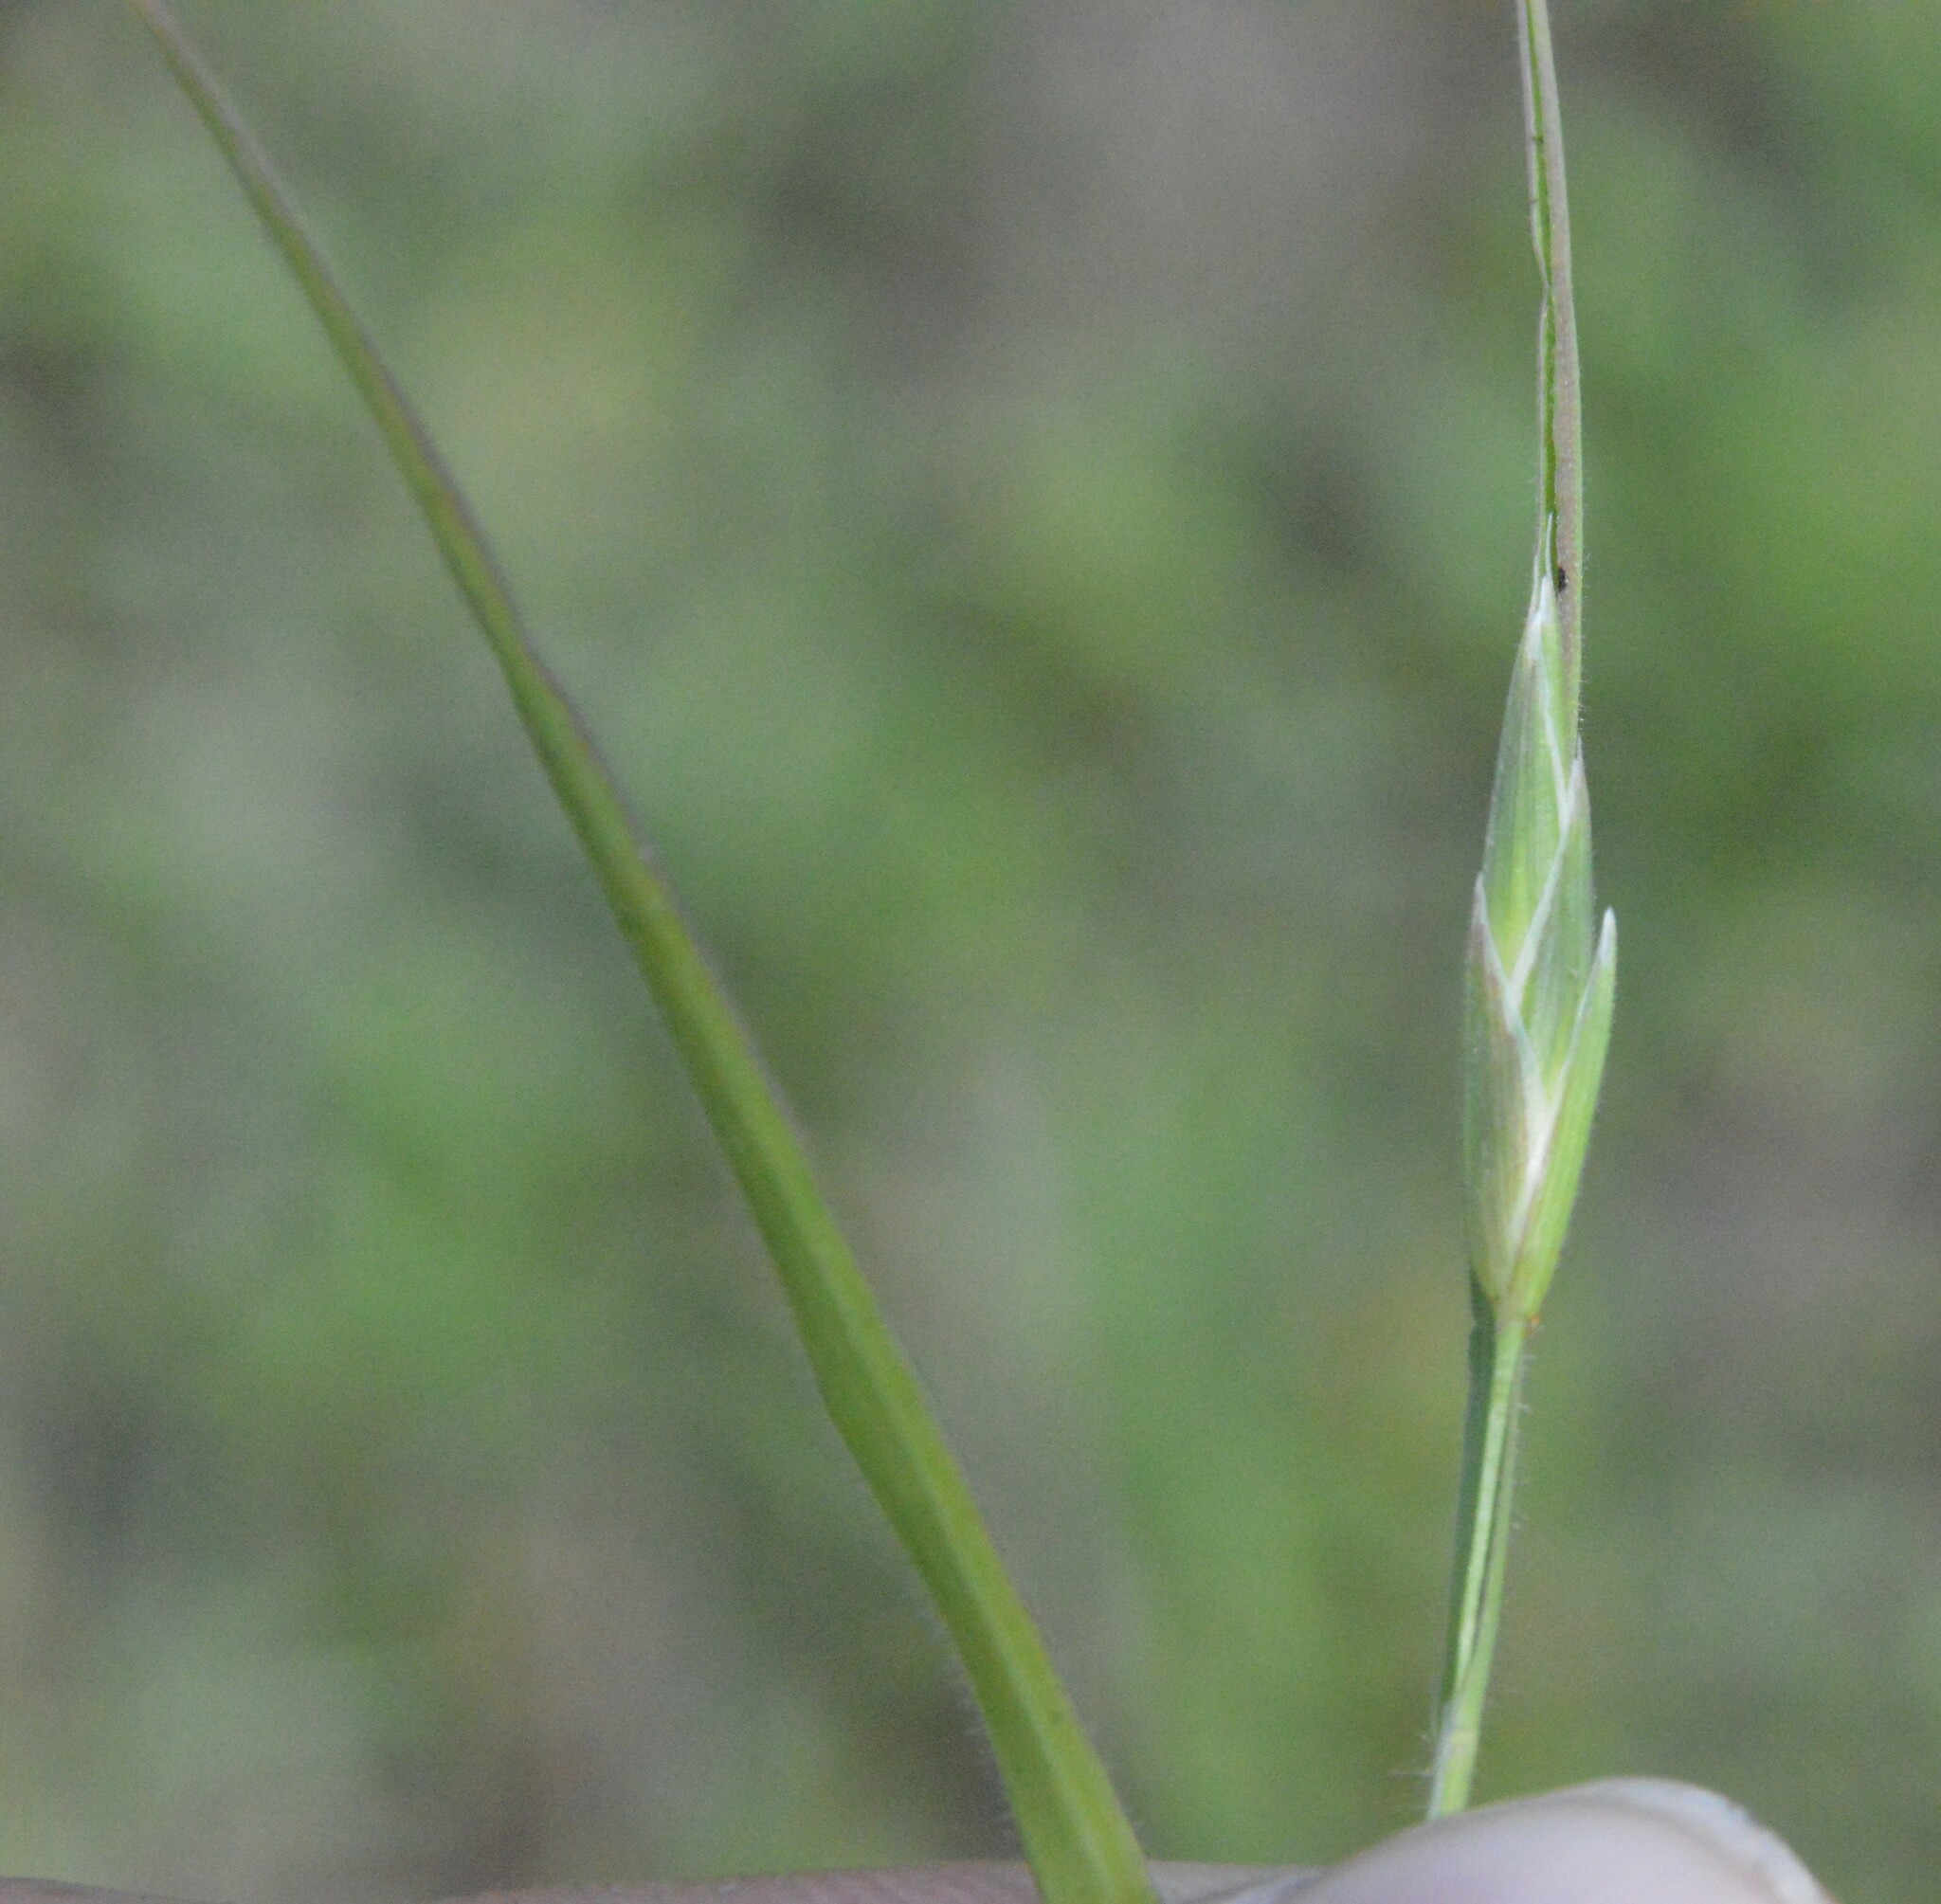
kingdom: Plantae
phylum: Tracheophyta
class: Liliopsida
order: Poales
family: Poaceae
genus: Bromus
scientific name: Bromus catharticus
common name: Rescuegrass
